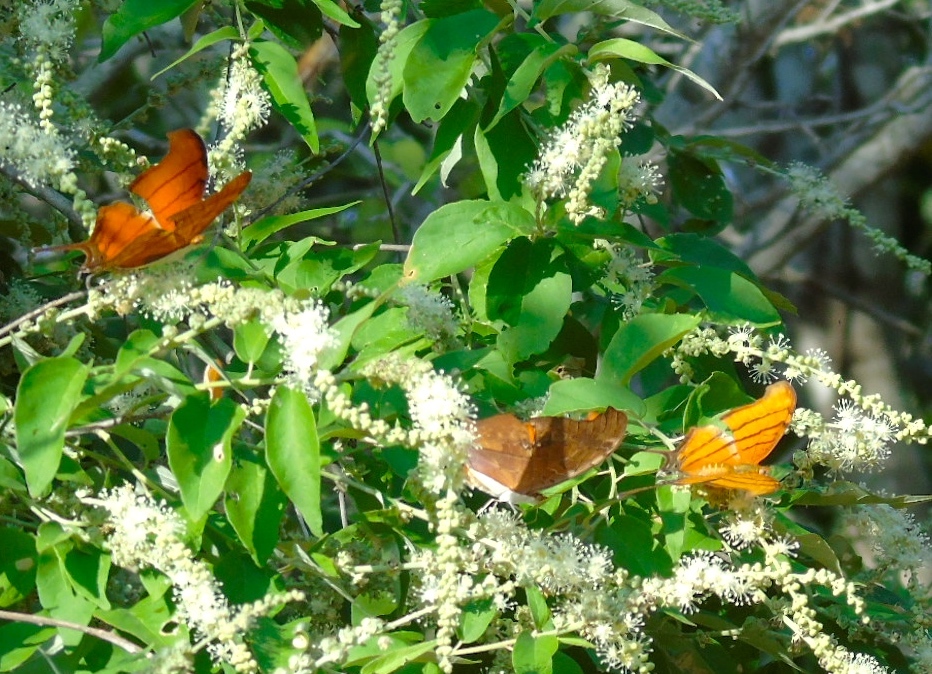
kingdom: Animalia
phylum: Arthropoda
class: Insecta
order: Lepidoptera
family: Nymphalidae
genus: Marpesia
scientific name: Marpesia petreus
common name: Red dagger wing
